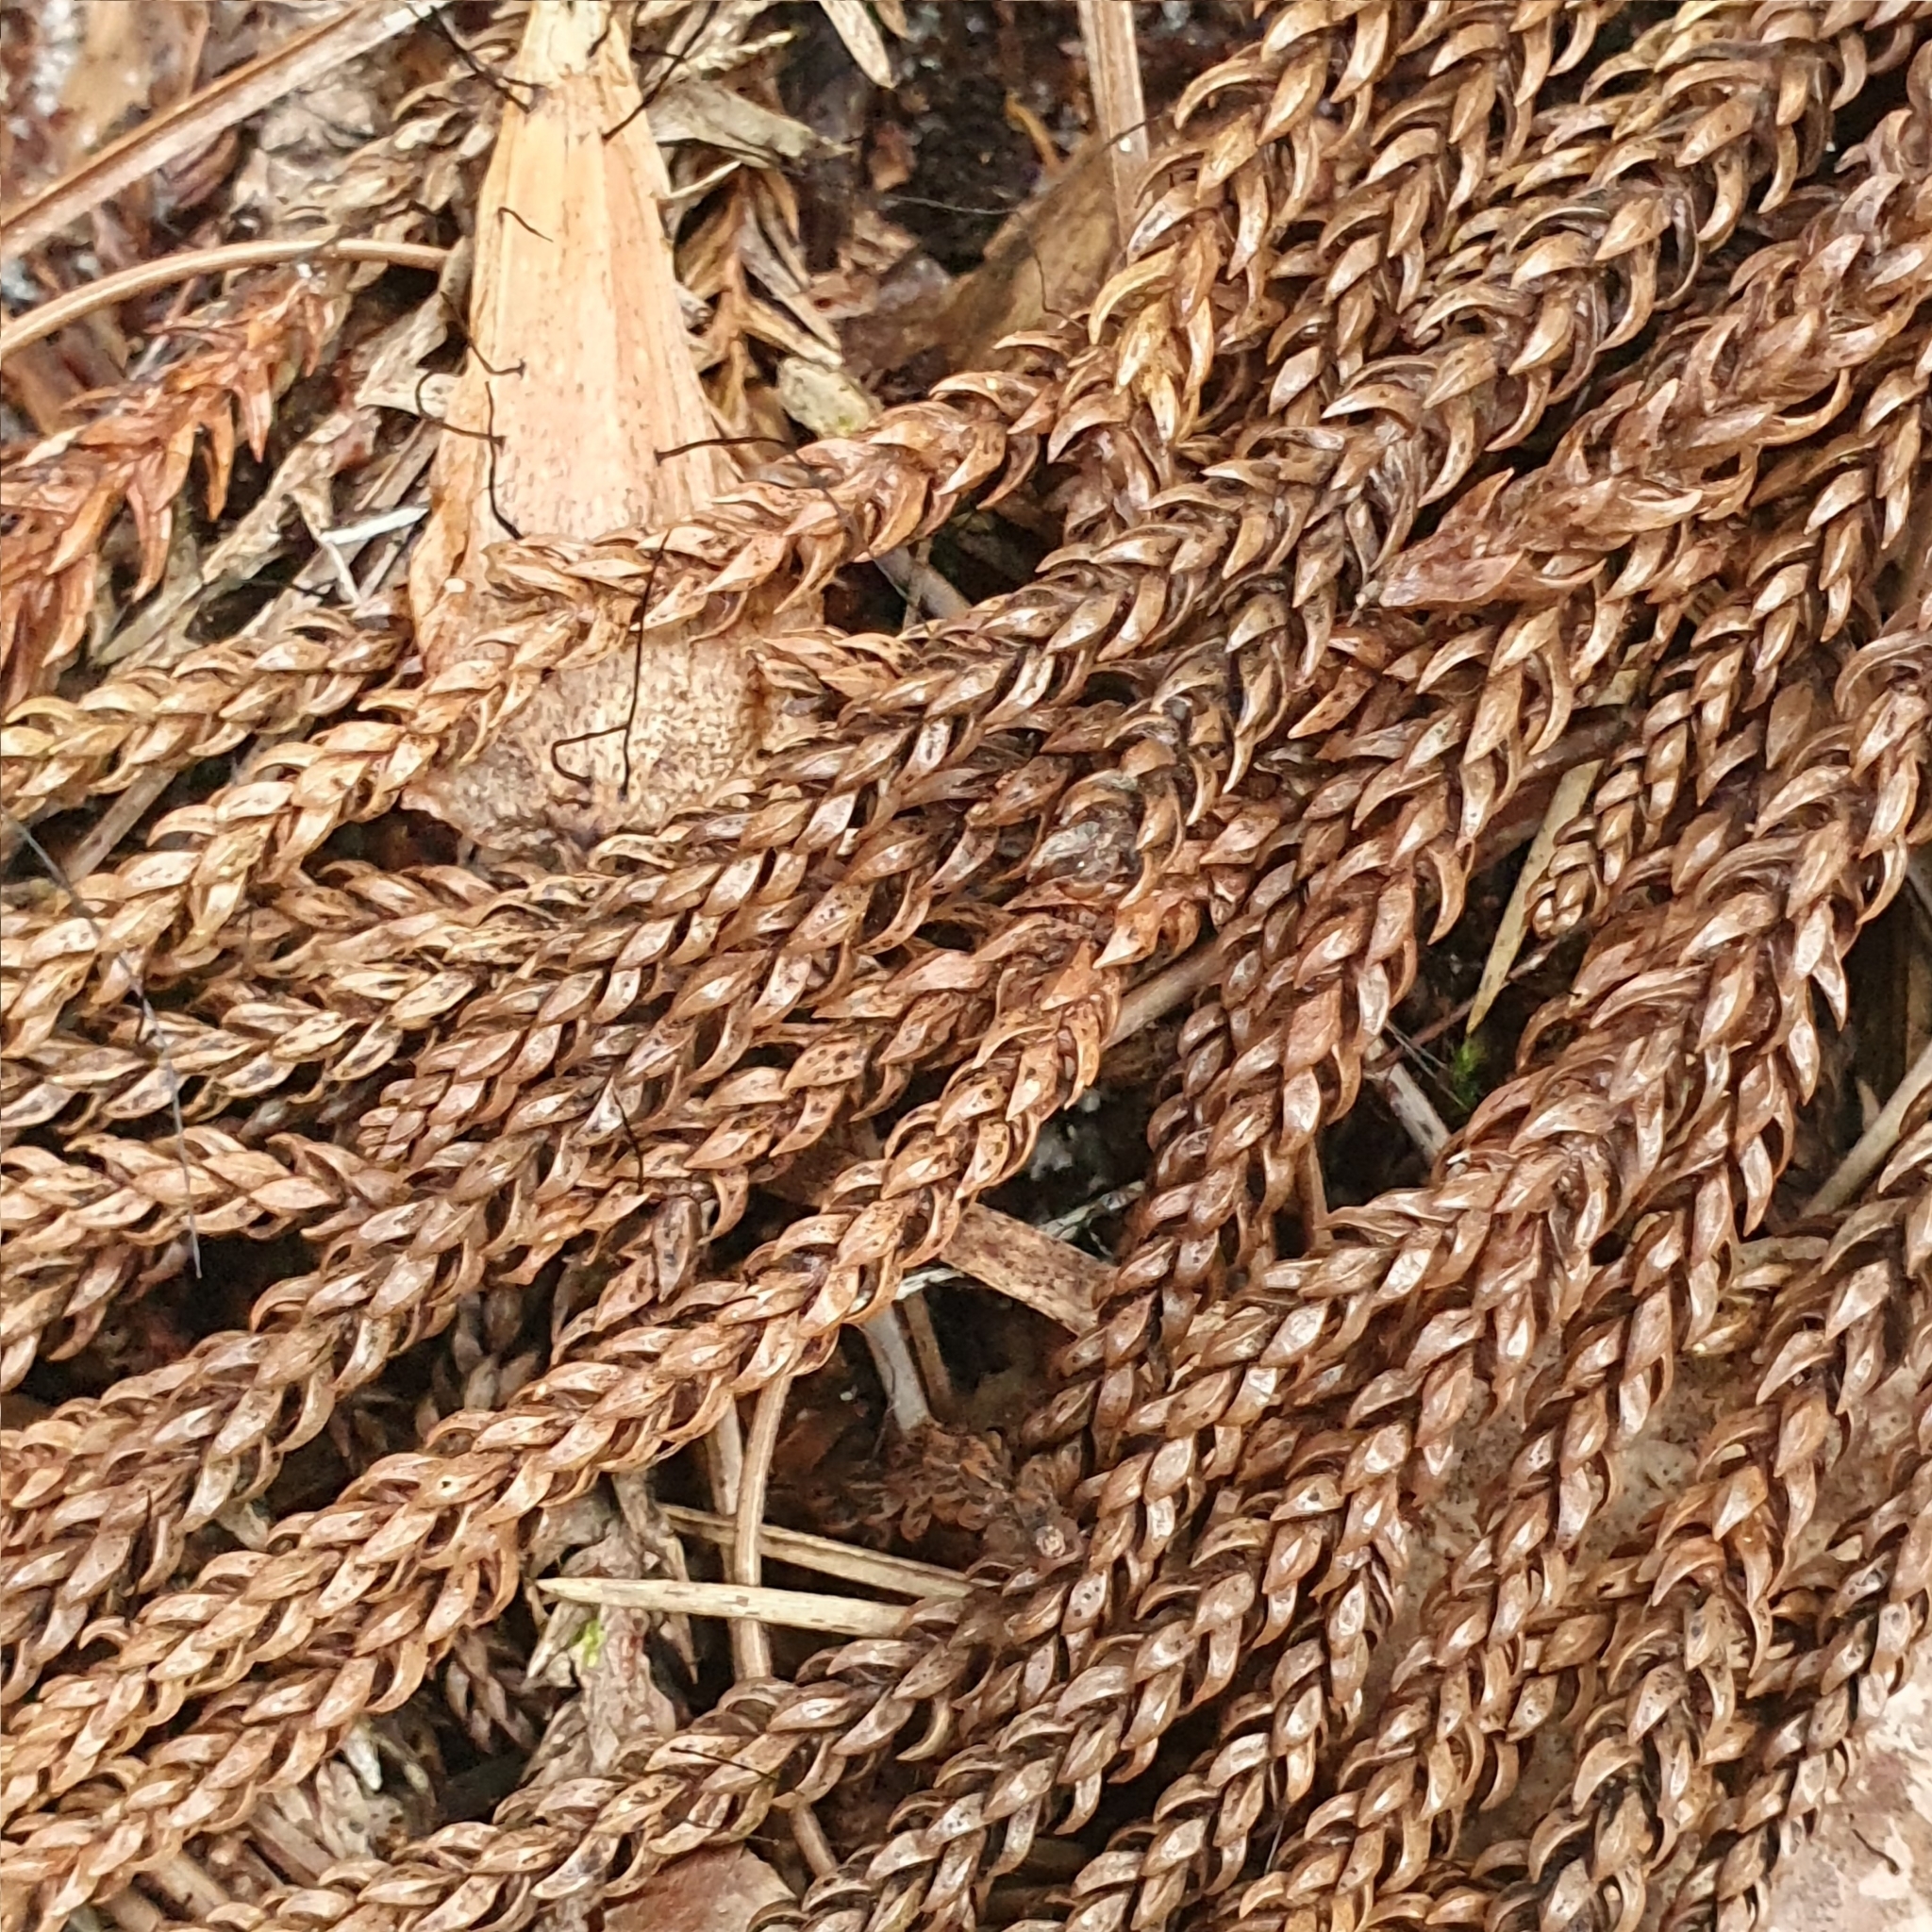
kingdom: Plantae
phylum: Tracheophyta
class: Pinopsida
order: Pinales
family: Araucariaceae
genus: Araucaria
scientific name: Araucaria cunninghamii
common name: Colonial pine
